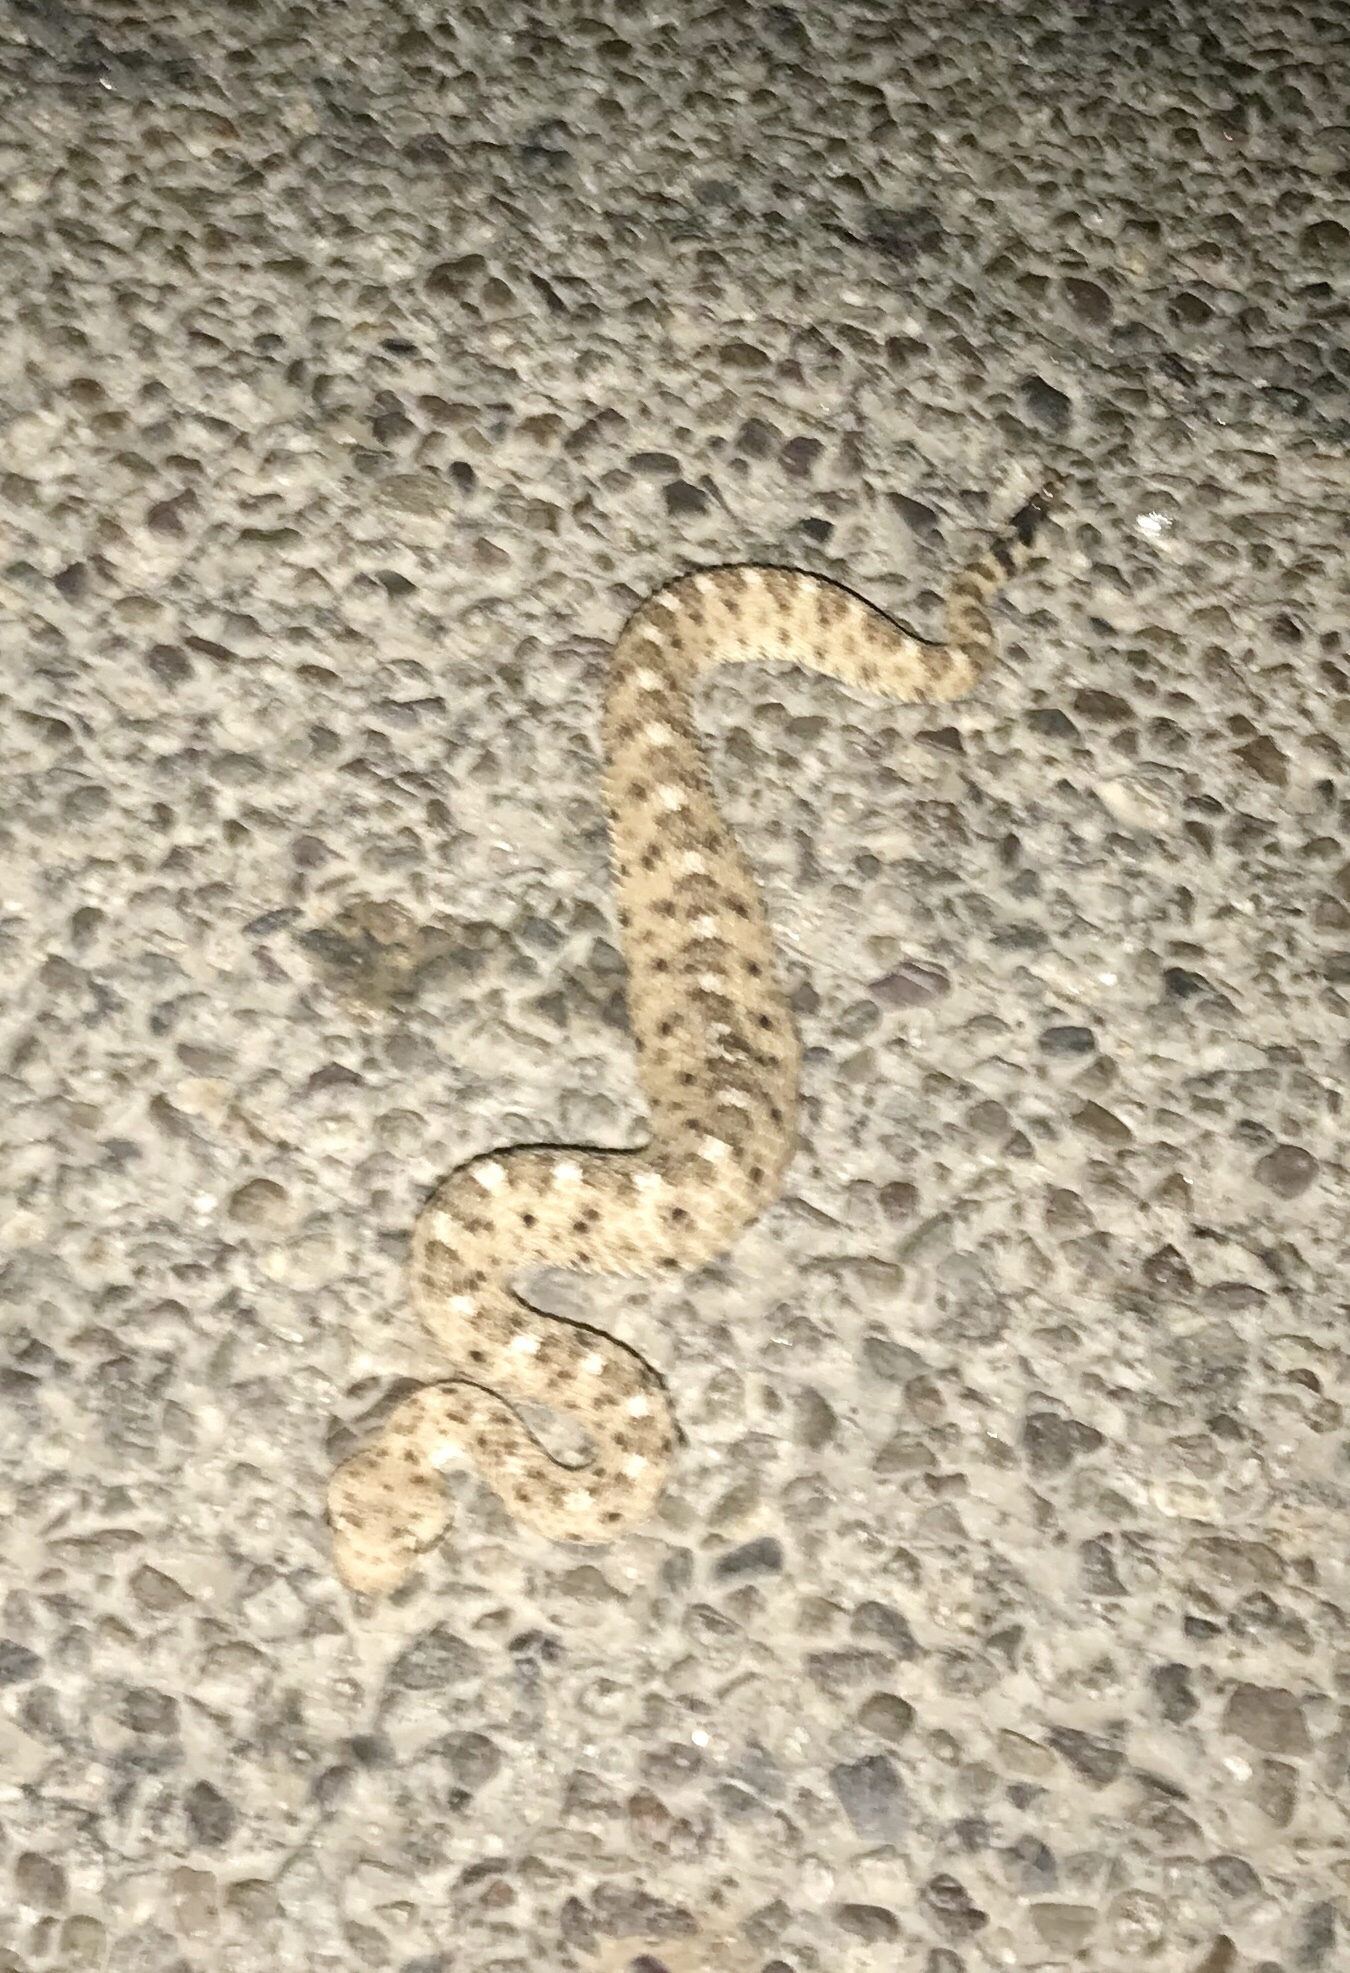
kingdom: Animalia
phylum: Chordata
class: Squamata
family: Viperidae
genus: Crotalus
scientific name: Crotalus cerastes
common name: Sidewinder
